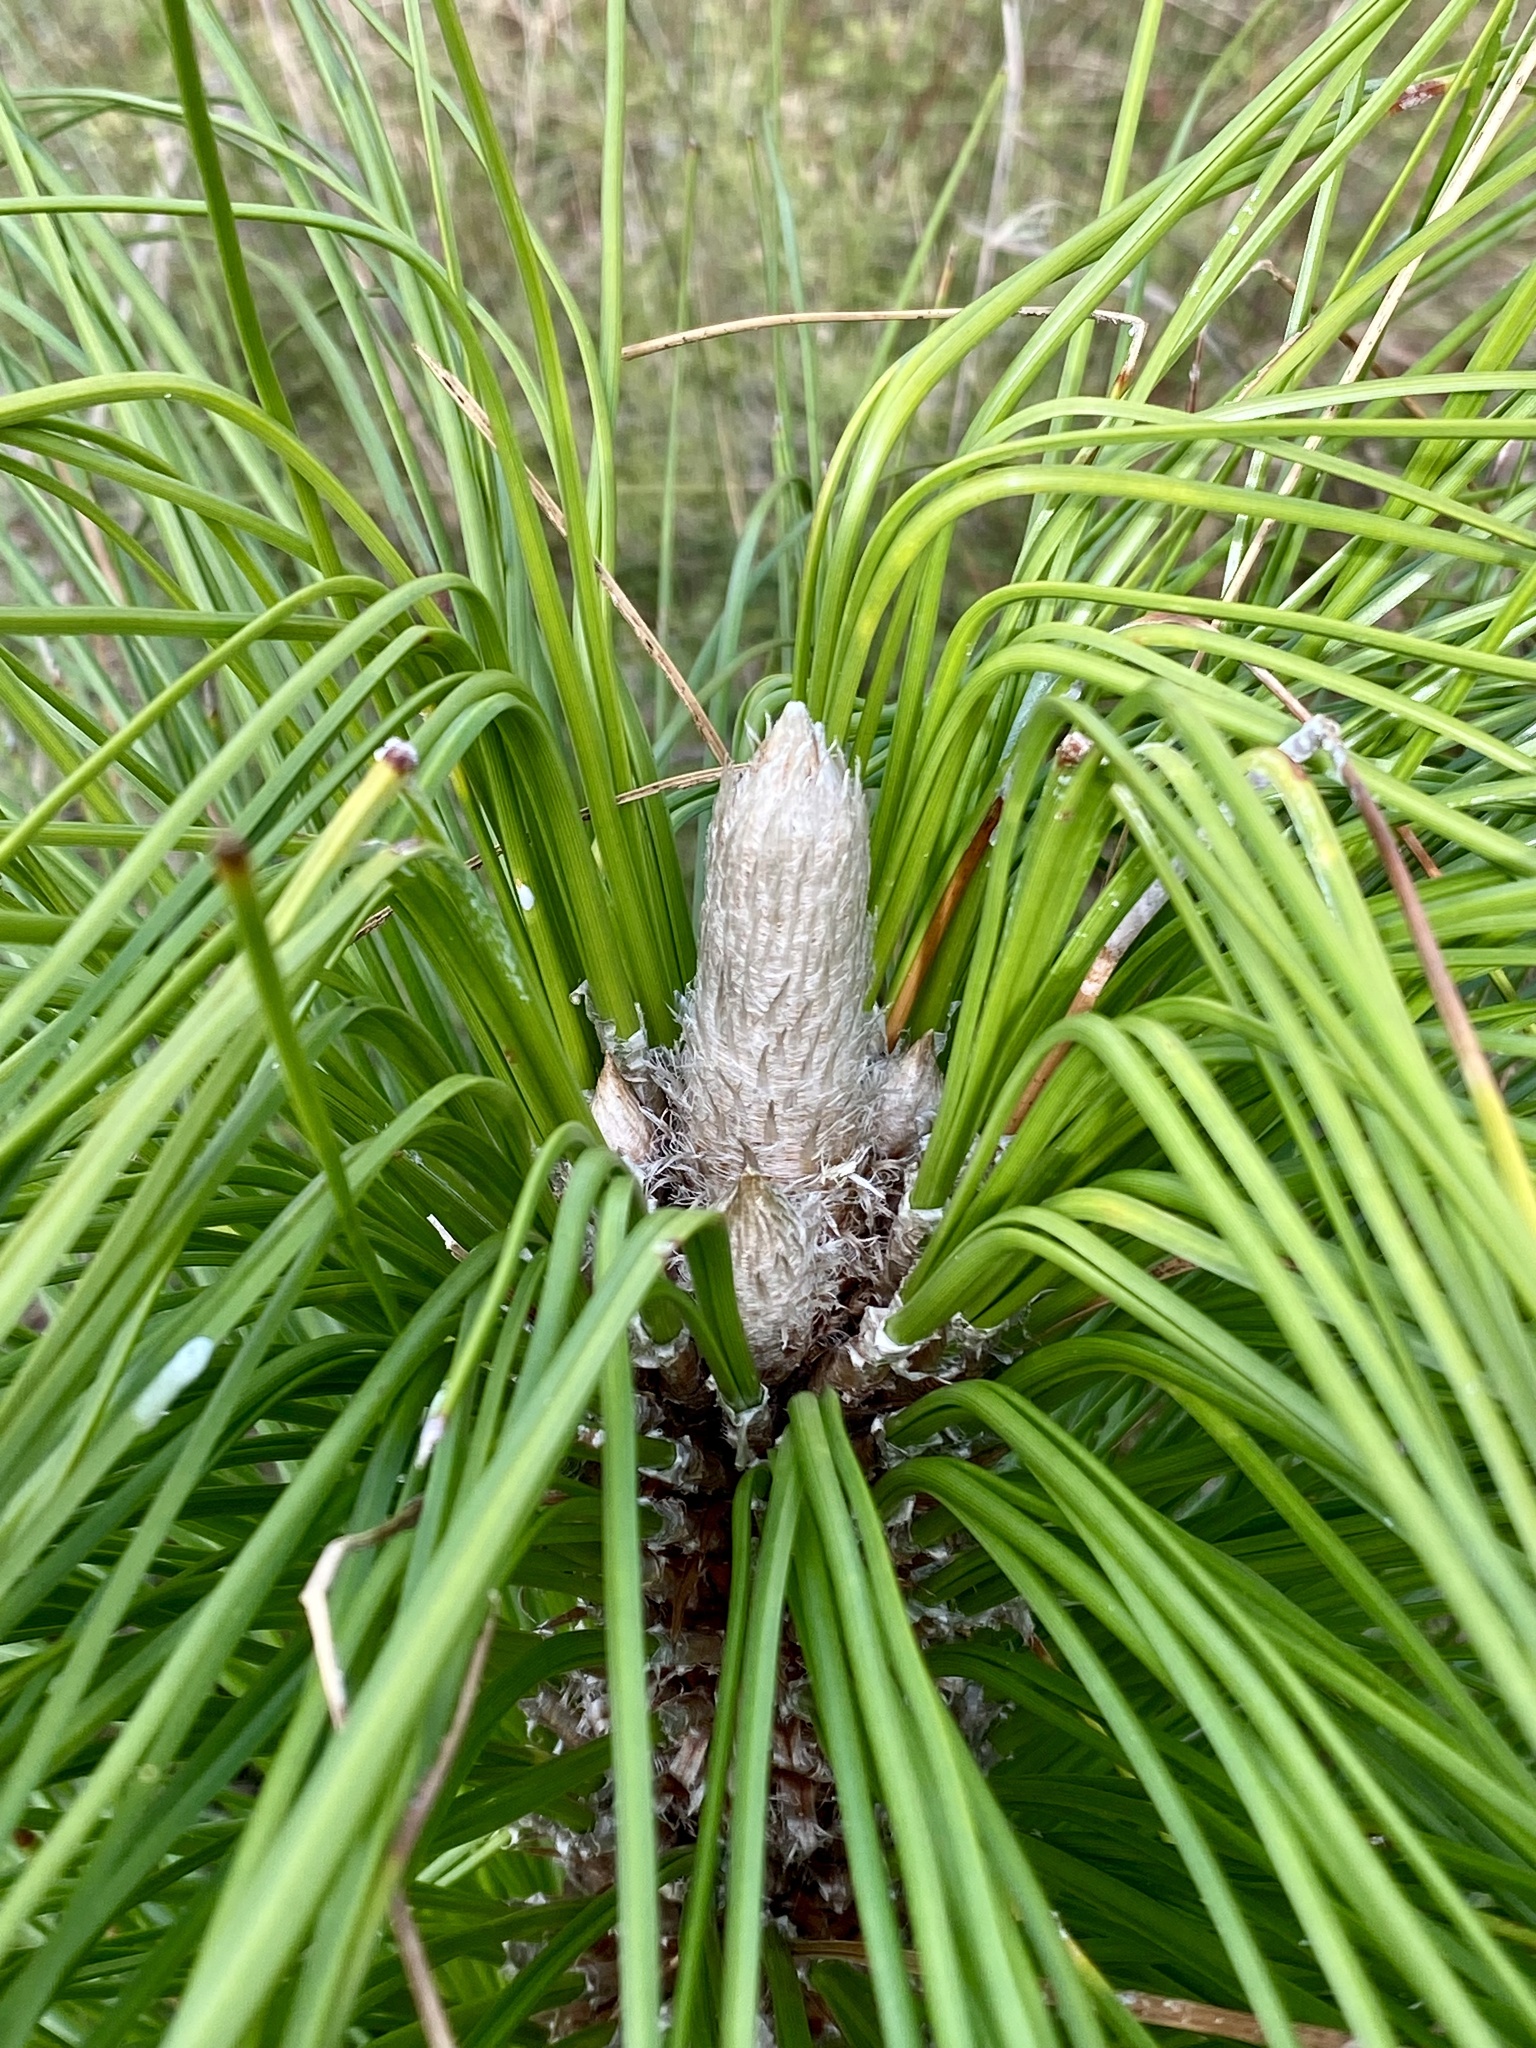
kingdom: Plantae
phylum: Tracheophyta
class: Pinopsida
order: Pinales
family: Pinaceae
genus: Pinus
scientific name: Pinus palustris
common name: Longleaf pine
